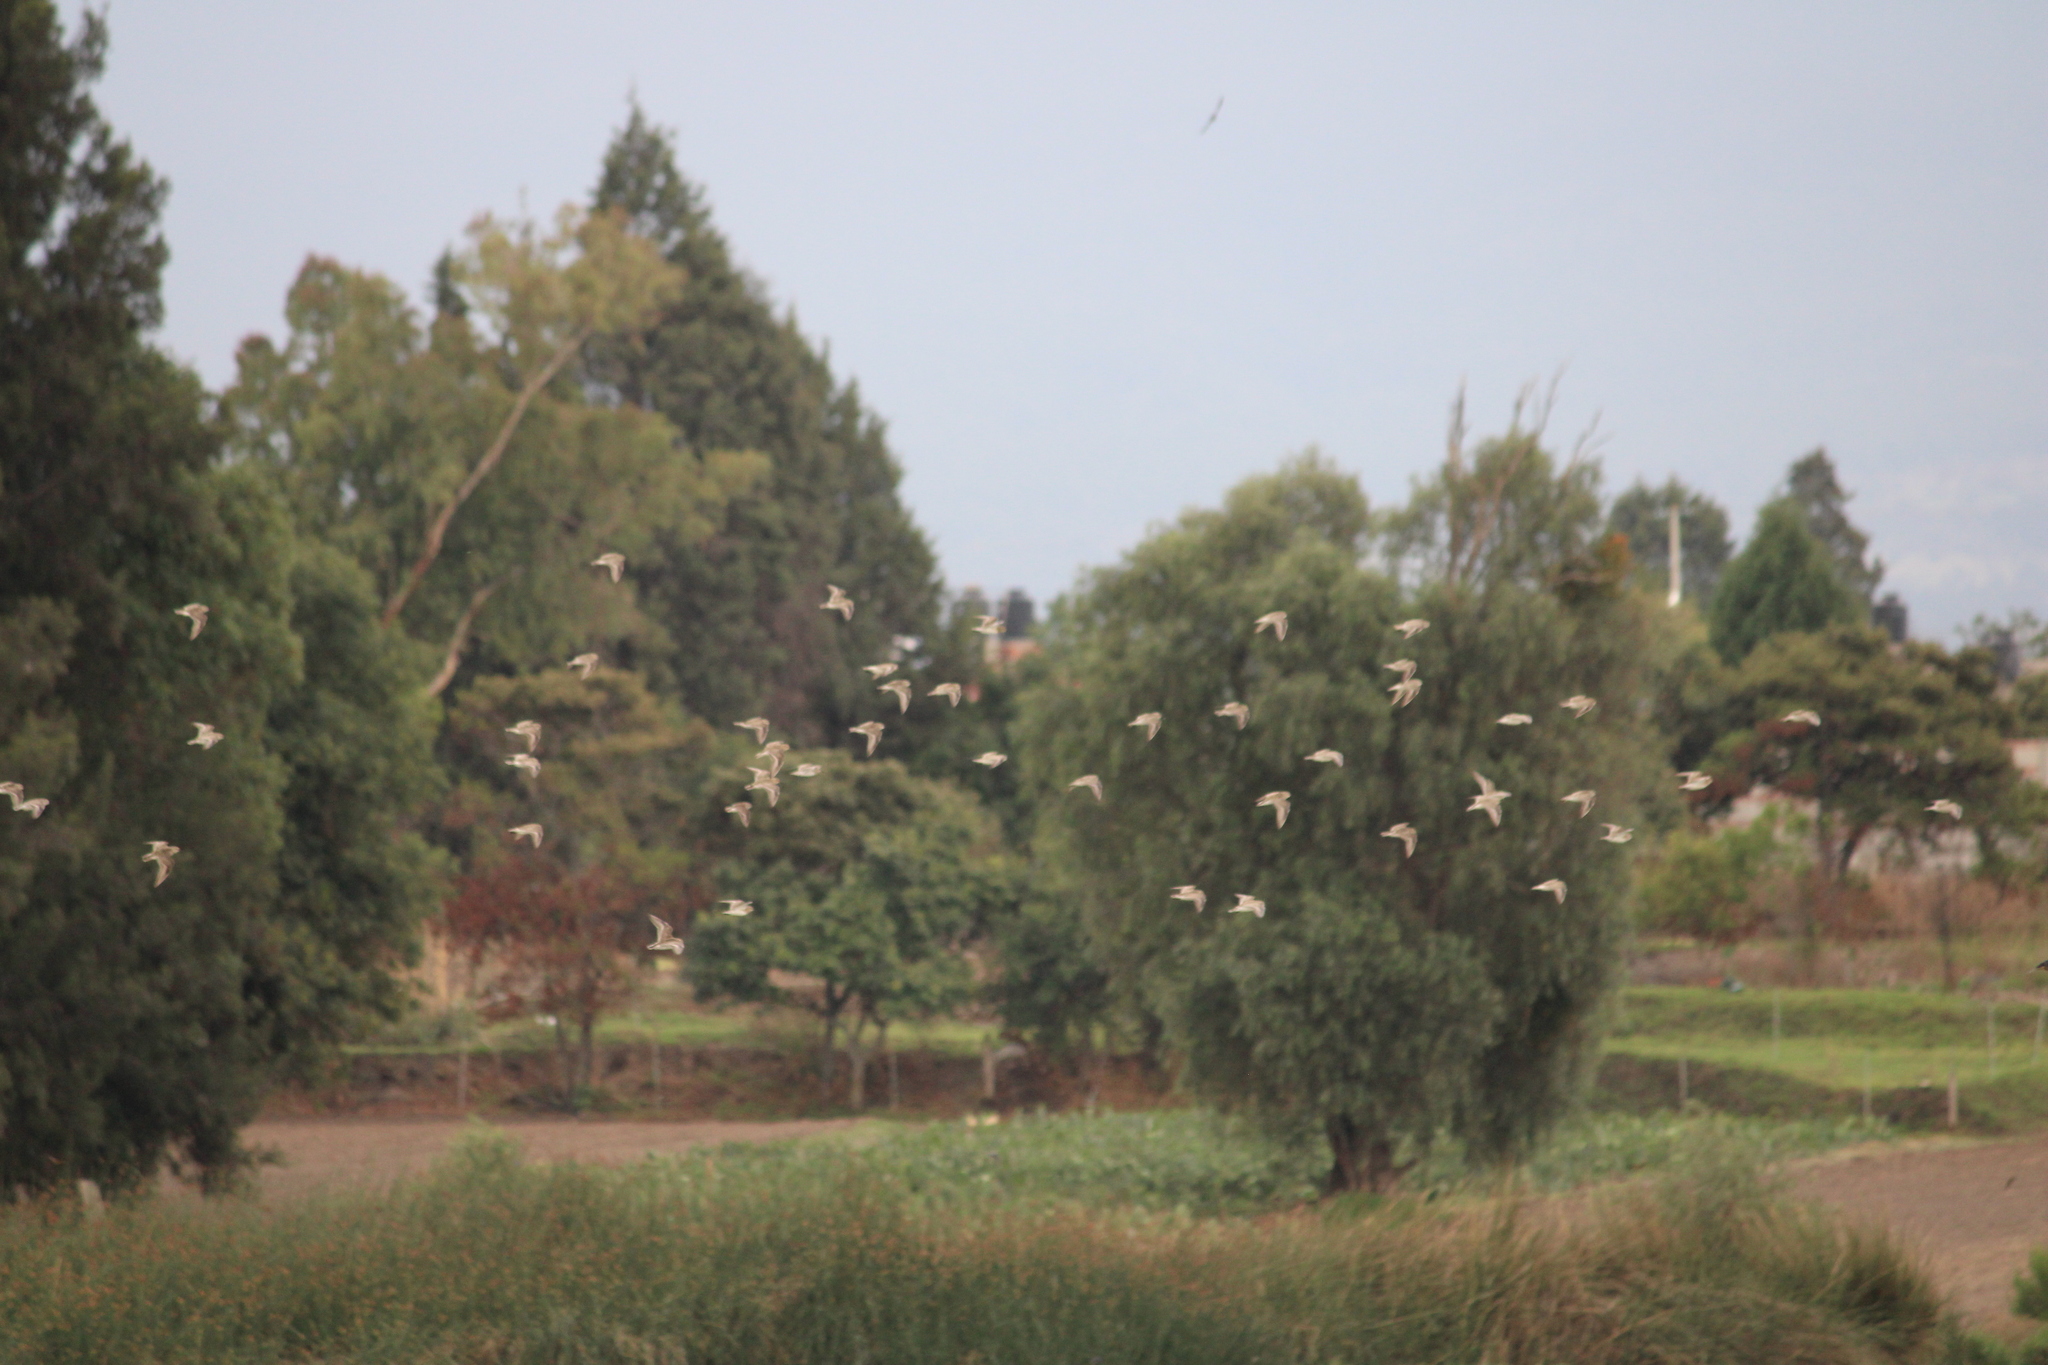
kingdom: Animalia
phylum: Chordata
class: Aves
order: Charadriiformes
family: Scolopacidae
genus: Calidris
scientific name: Calidris minutilla
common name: Least sandpiper
